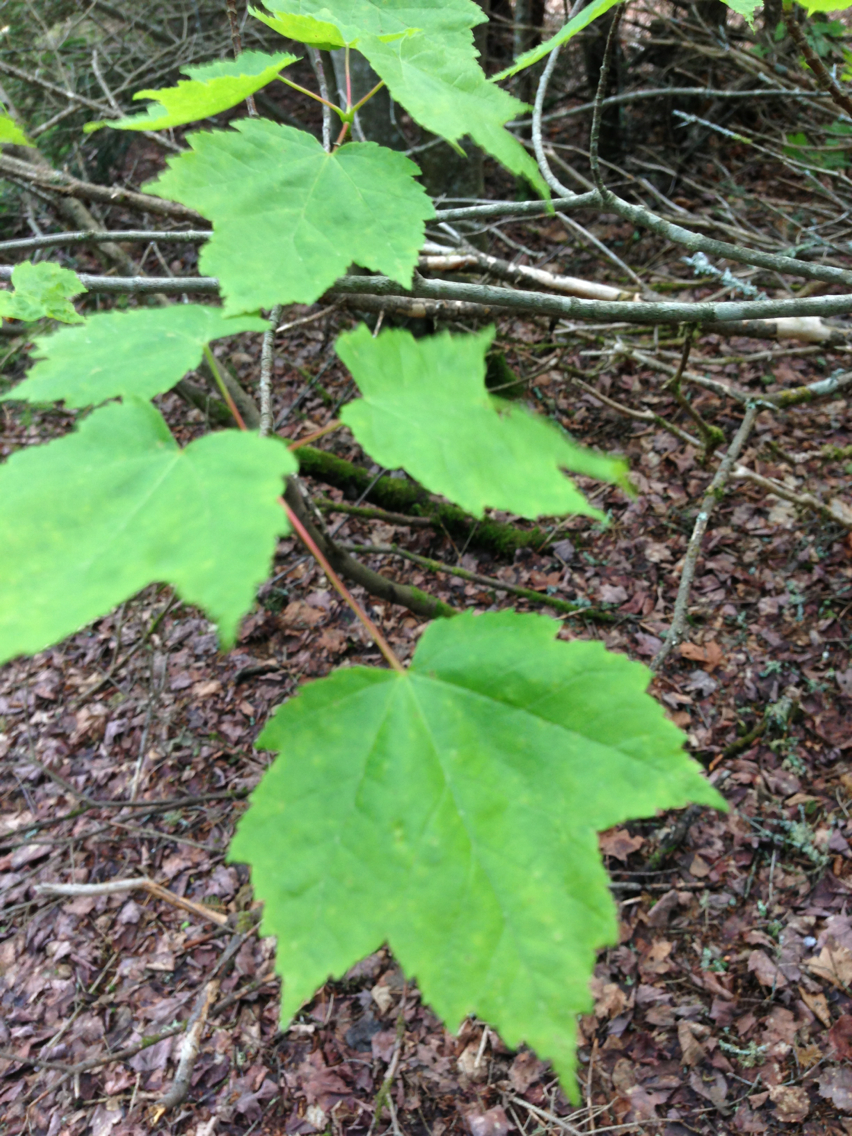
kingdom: Plantae
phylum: Tracheophyta
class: Magnoliopsida
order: Sapindales
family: Sapindaceae
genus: Acer
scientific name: Acer rubrum
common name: Red maple
